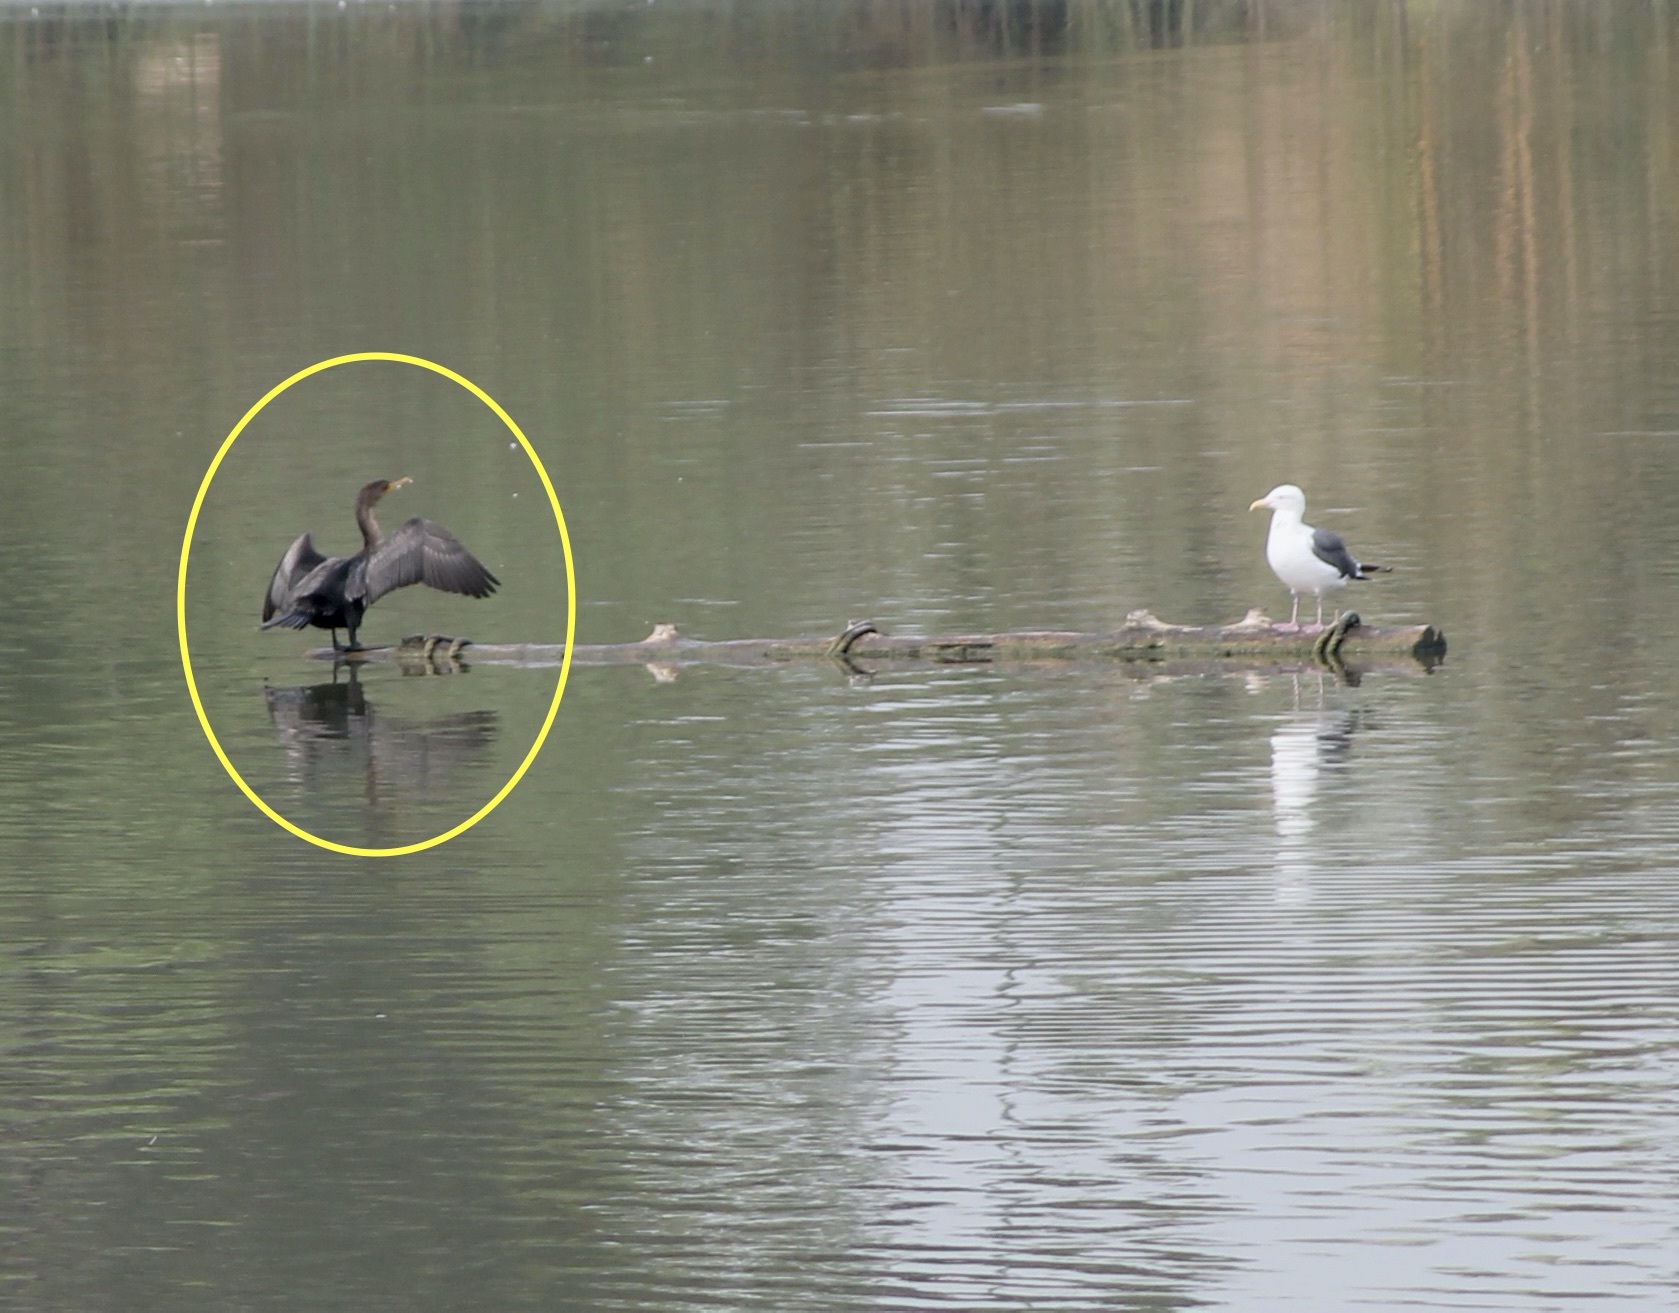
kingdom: Animalia
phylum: Chordata
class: Aves
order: Suliformes
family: Phalacrocoracidae
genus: Phalacrocorax
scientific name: Phalacrocorax auritus
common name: Double-crested cormorant
